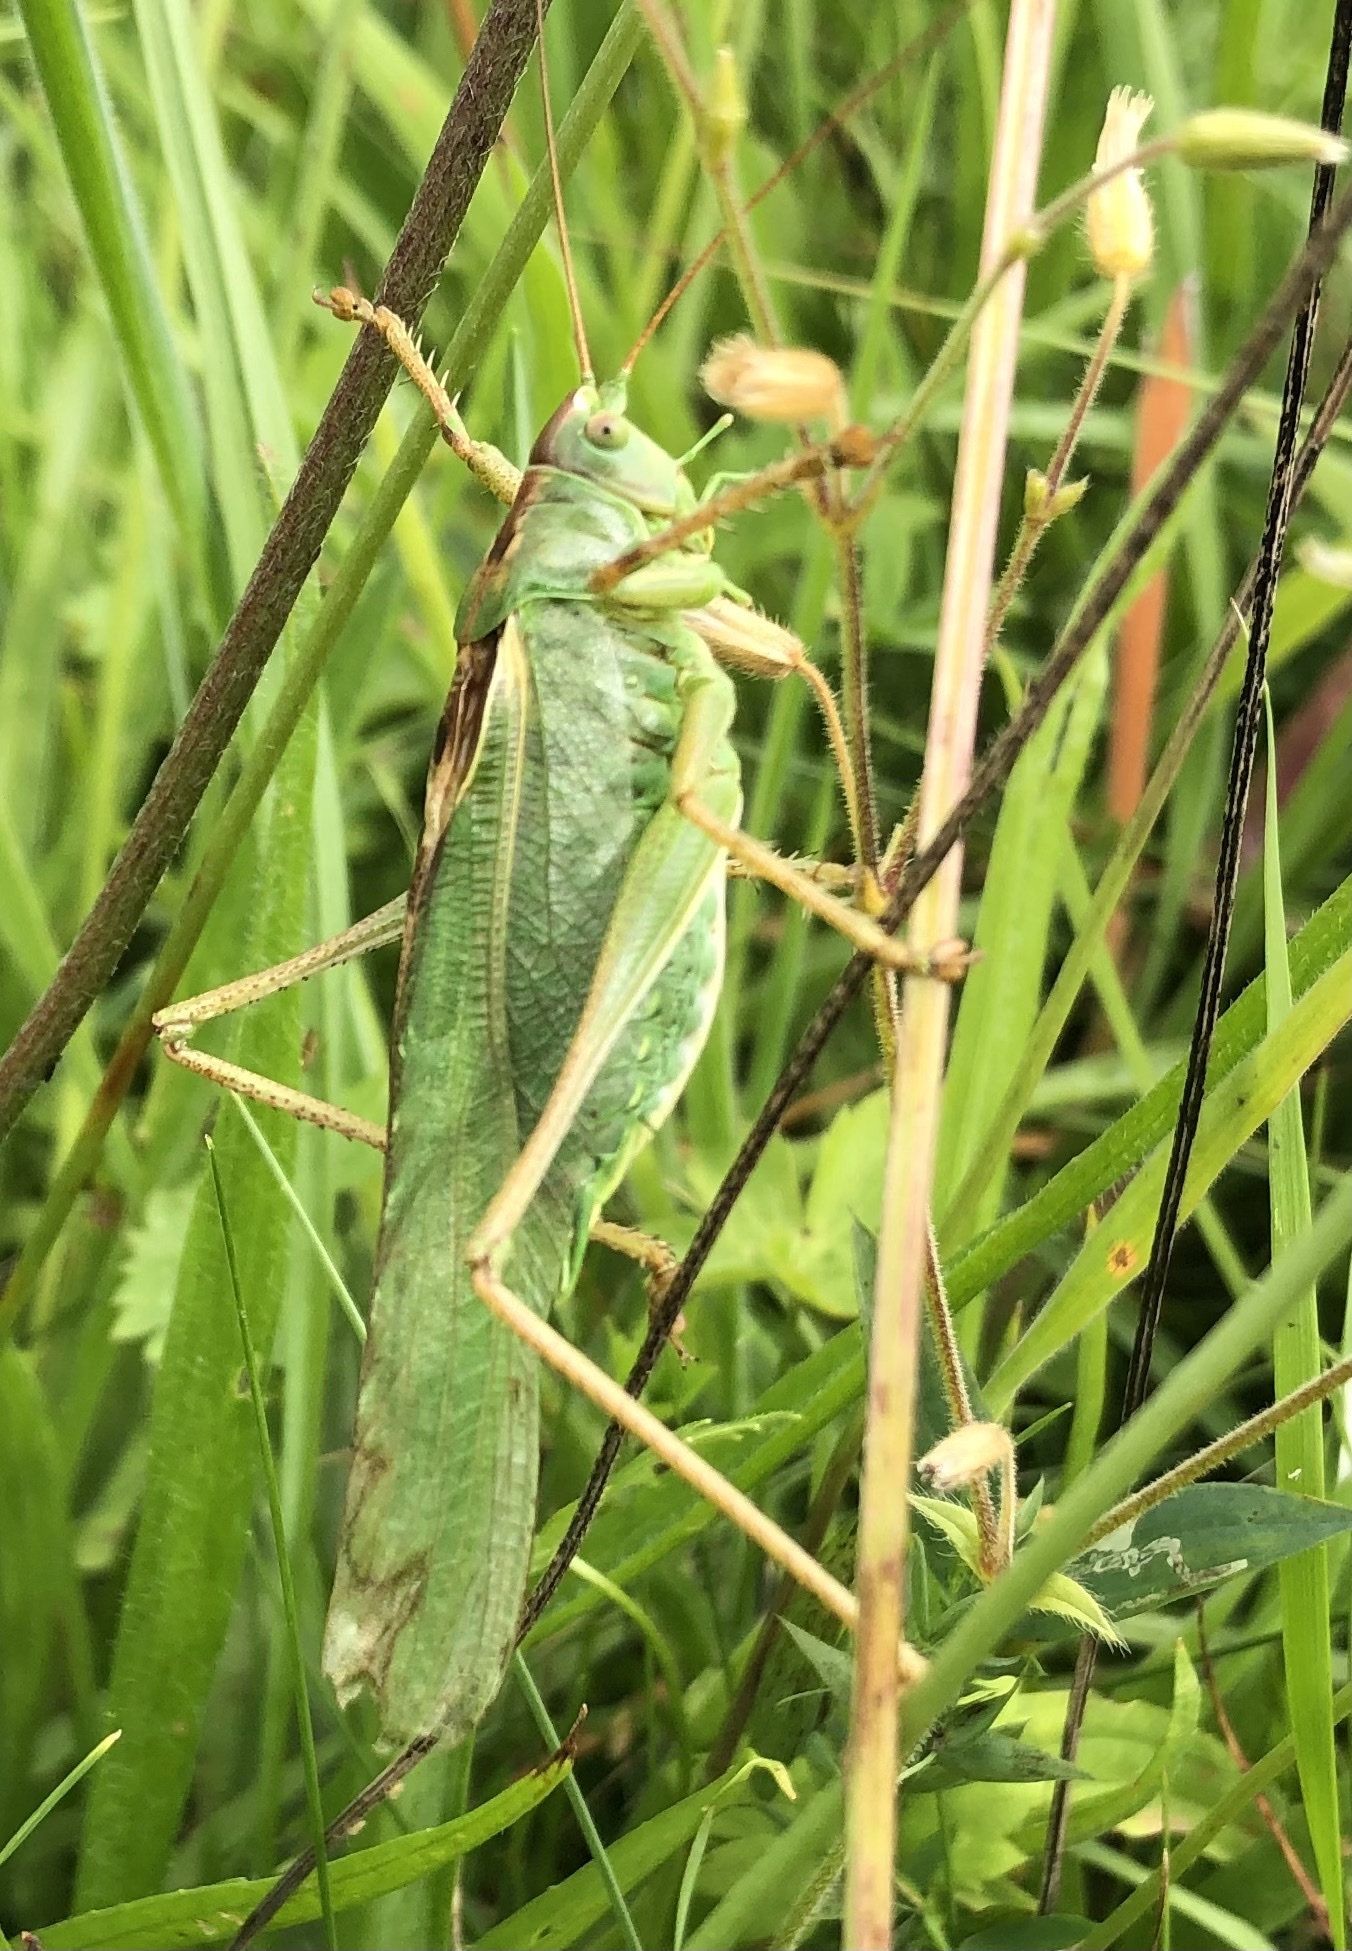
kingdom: Animalia
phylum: Arthropoda
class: Insecta
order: Orthoptera
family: Tettigoniidae
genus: Tettigonia
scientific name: Tettigonia viridissima
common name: Great green bush-cricket
